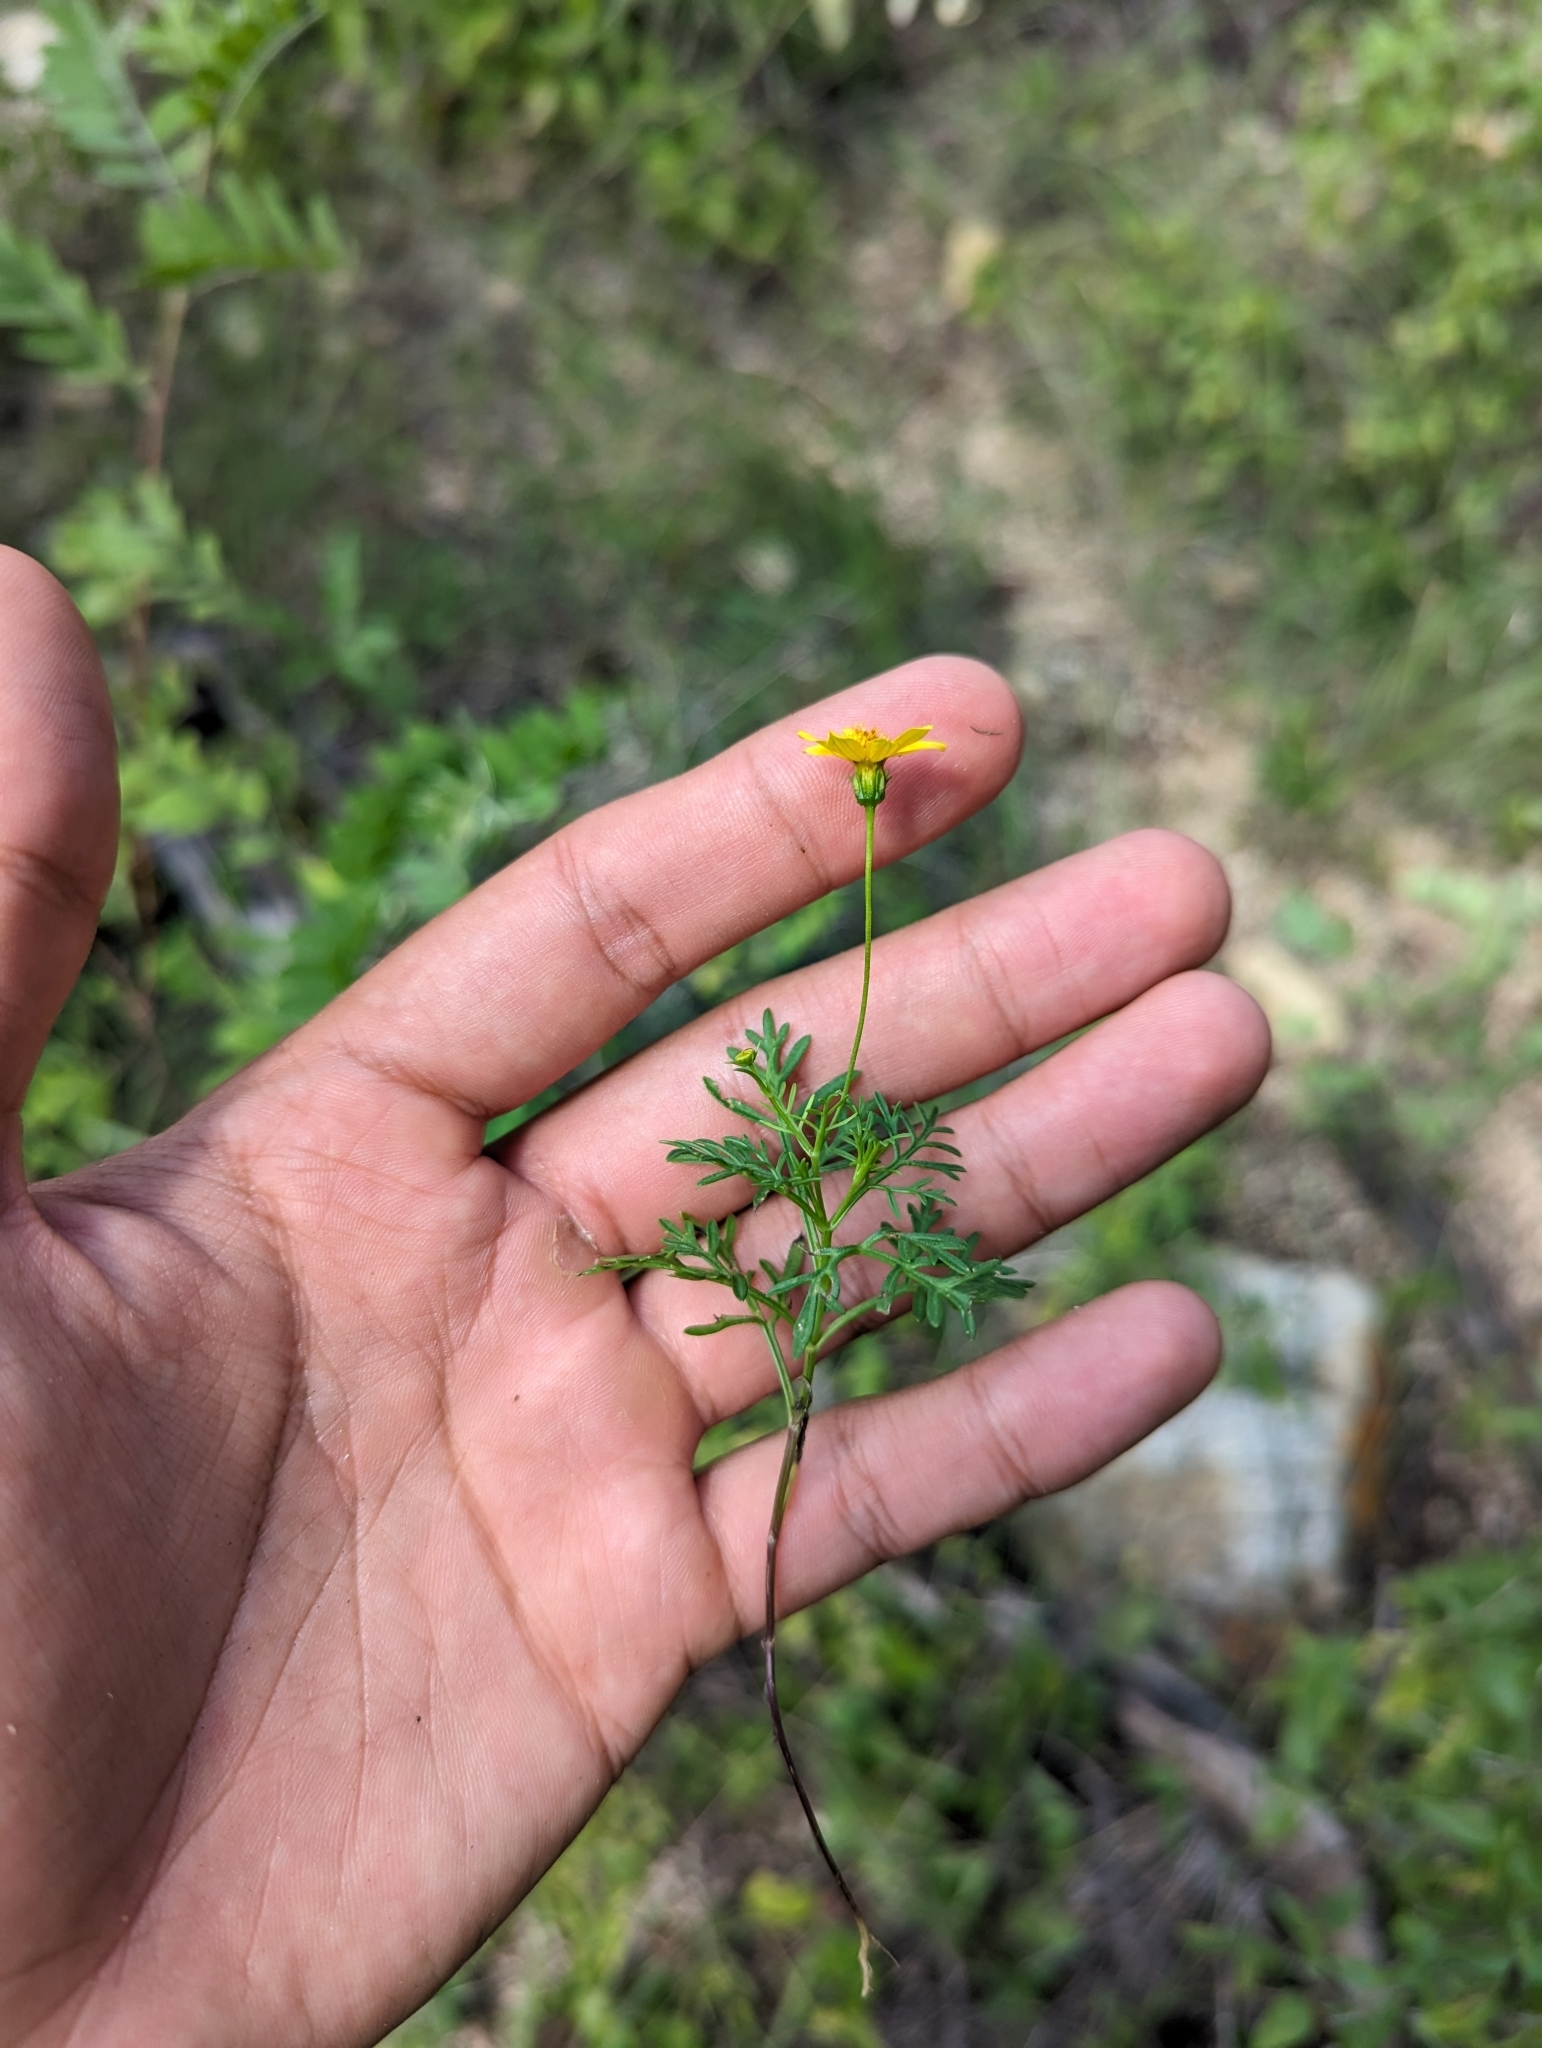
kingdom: Plantae
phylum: Tracheophyta
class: Magnoliopsida
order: Asterales
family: Asteraceae
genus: Bidens
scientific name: Bidens xanti
